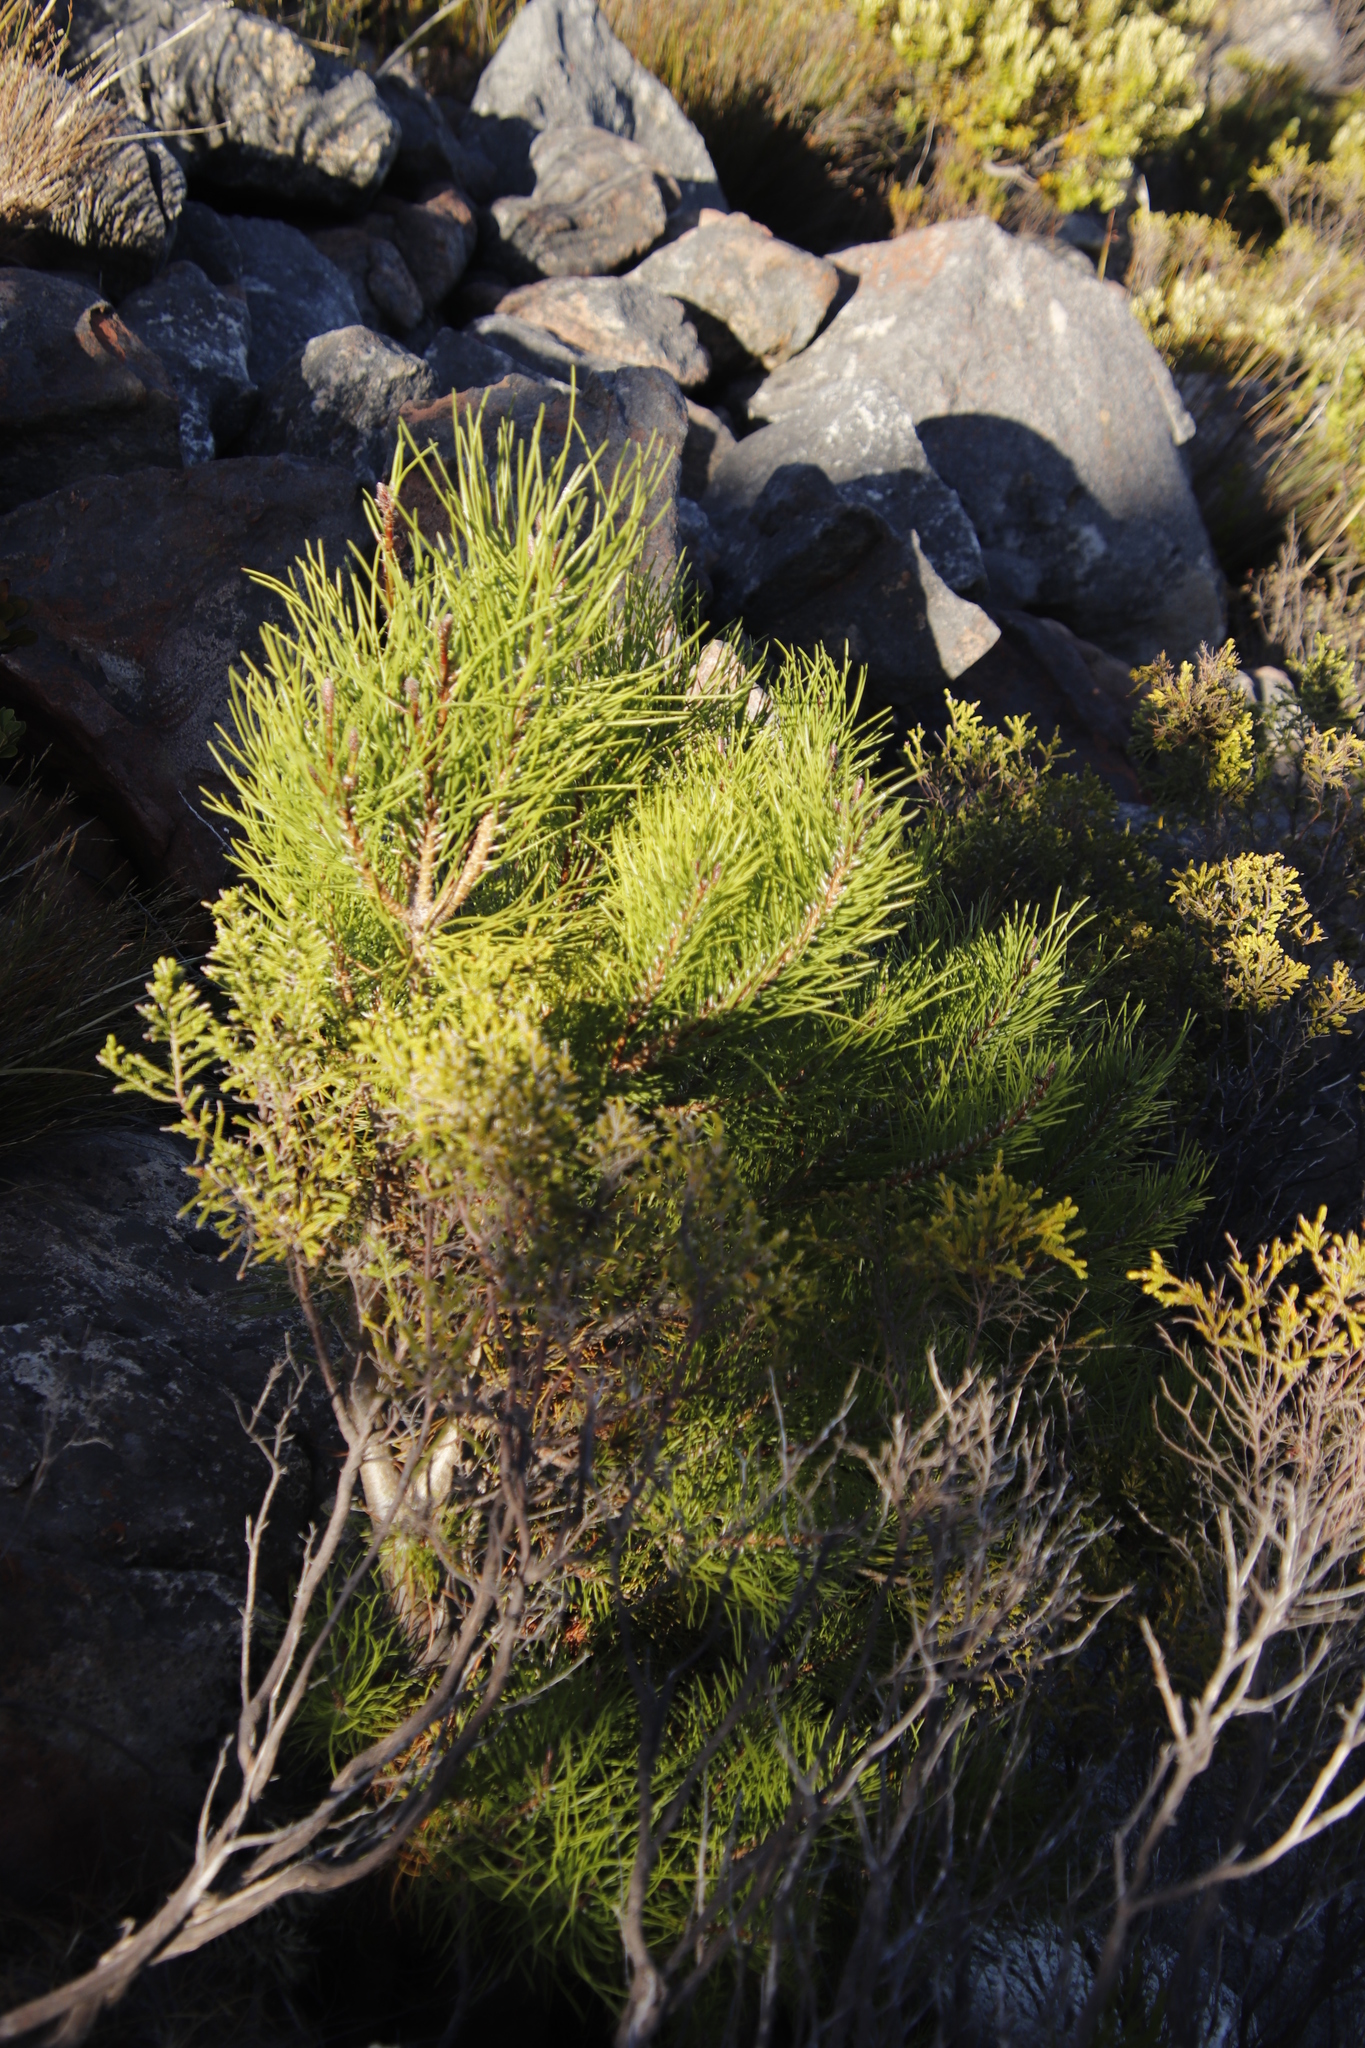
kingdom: Plantae
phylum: Tracheophyta
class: Pinopsida
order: Pinales
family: Pinaceae
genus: Pinus
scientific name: Pinus pinaster
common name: Maritime pine
